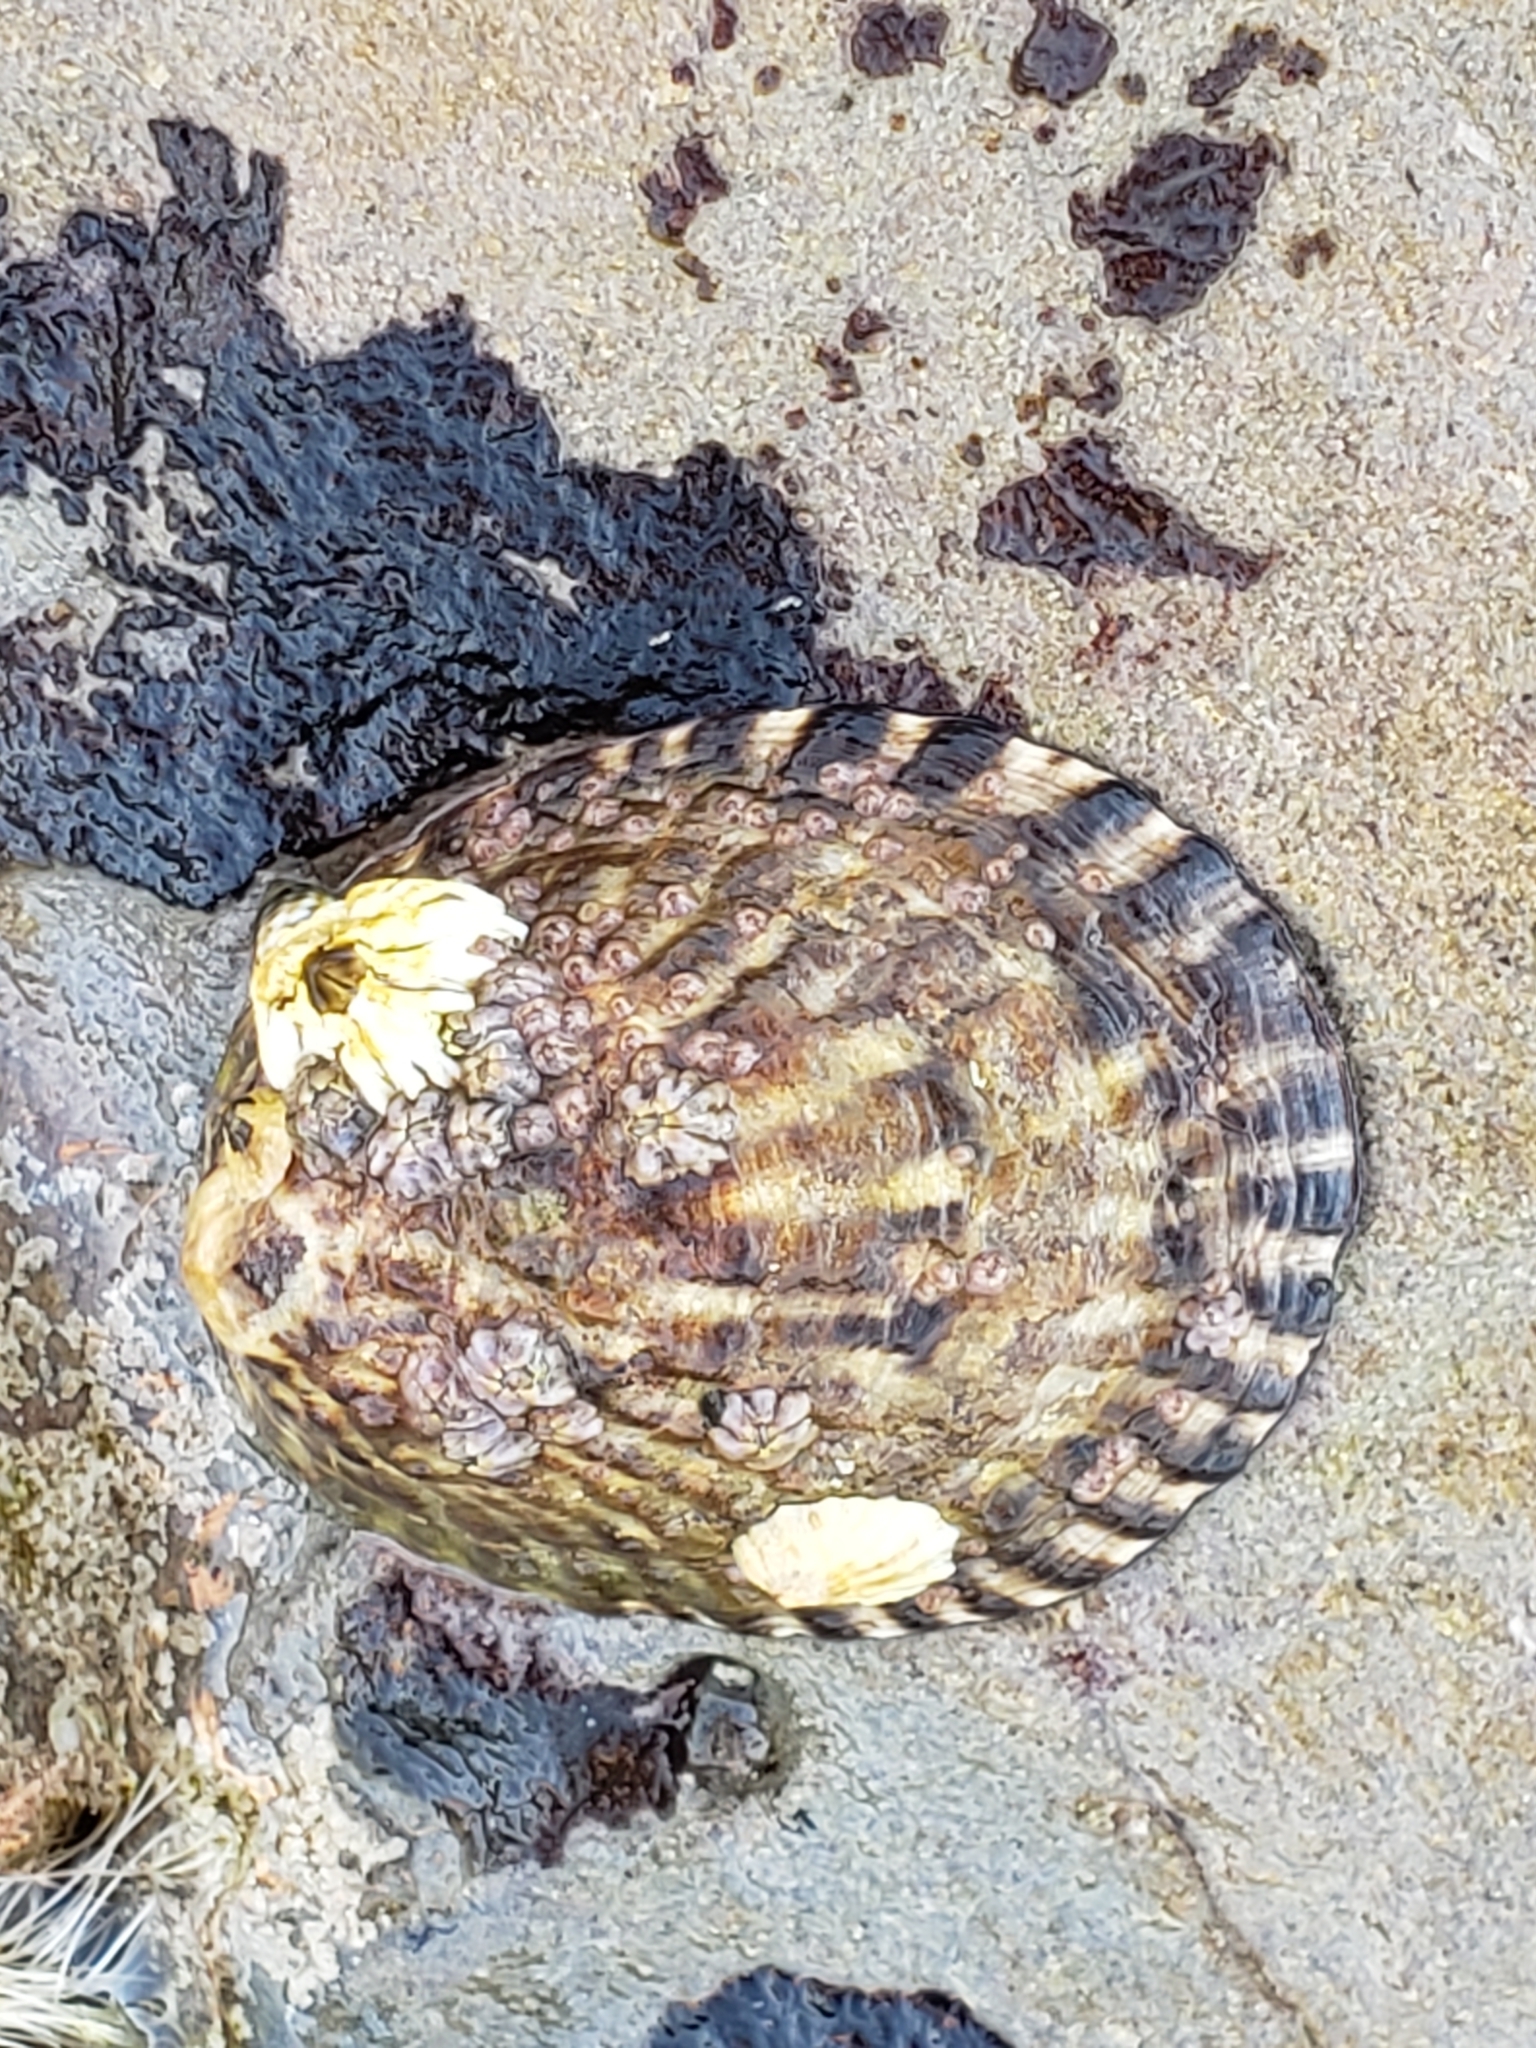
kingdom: Animalia
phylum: Mollusca
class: Gastropoda
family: Lottiidae
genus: Lottia
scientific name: Lottia gigantea
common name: Owl limpet
